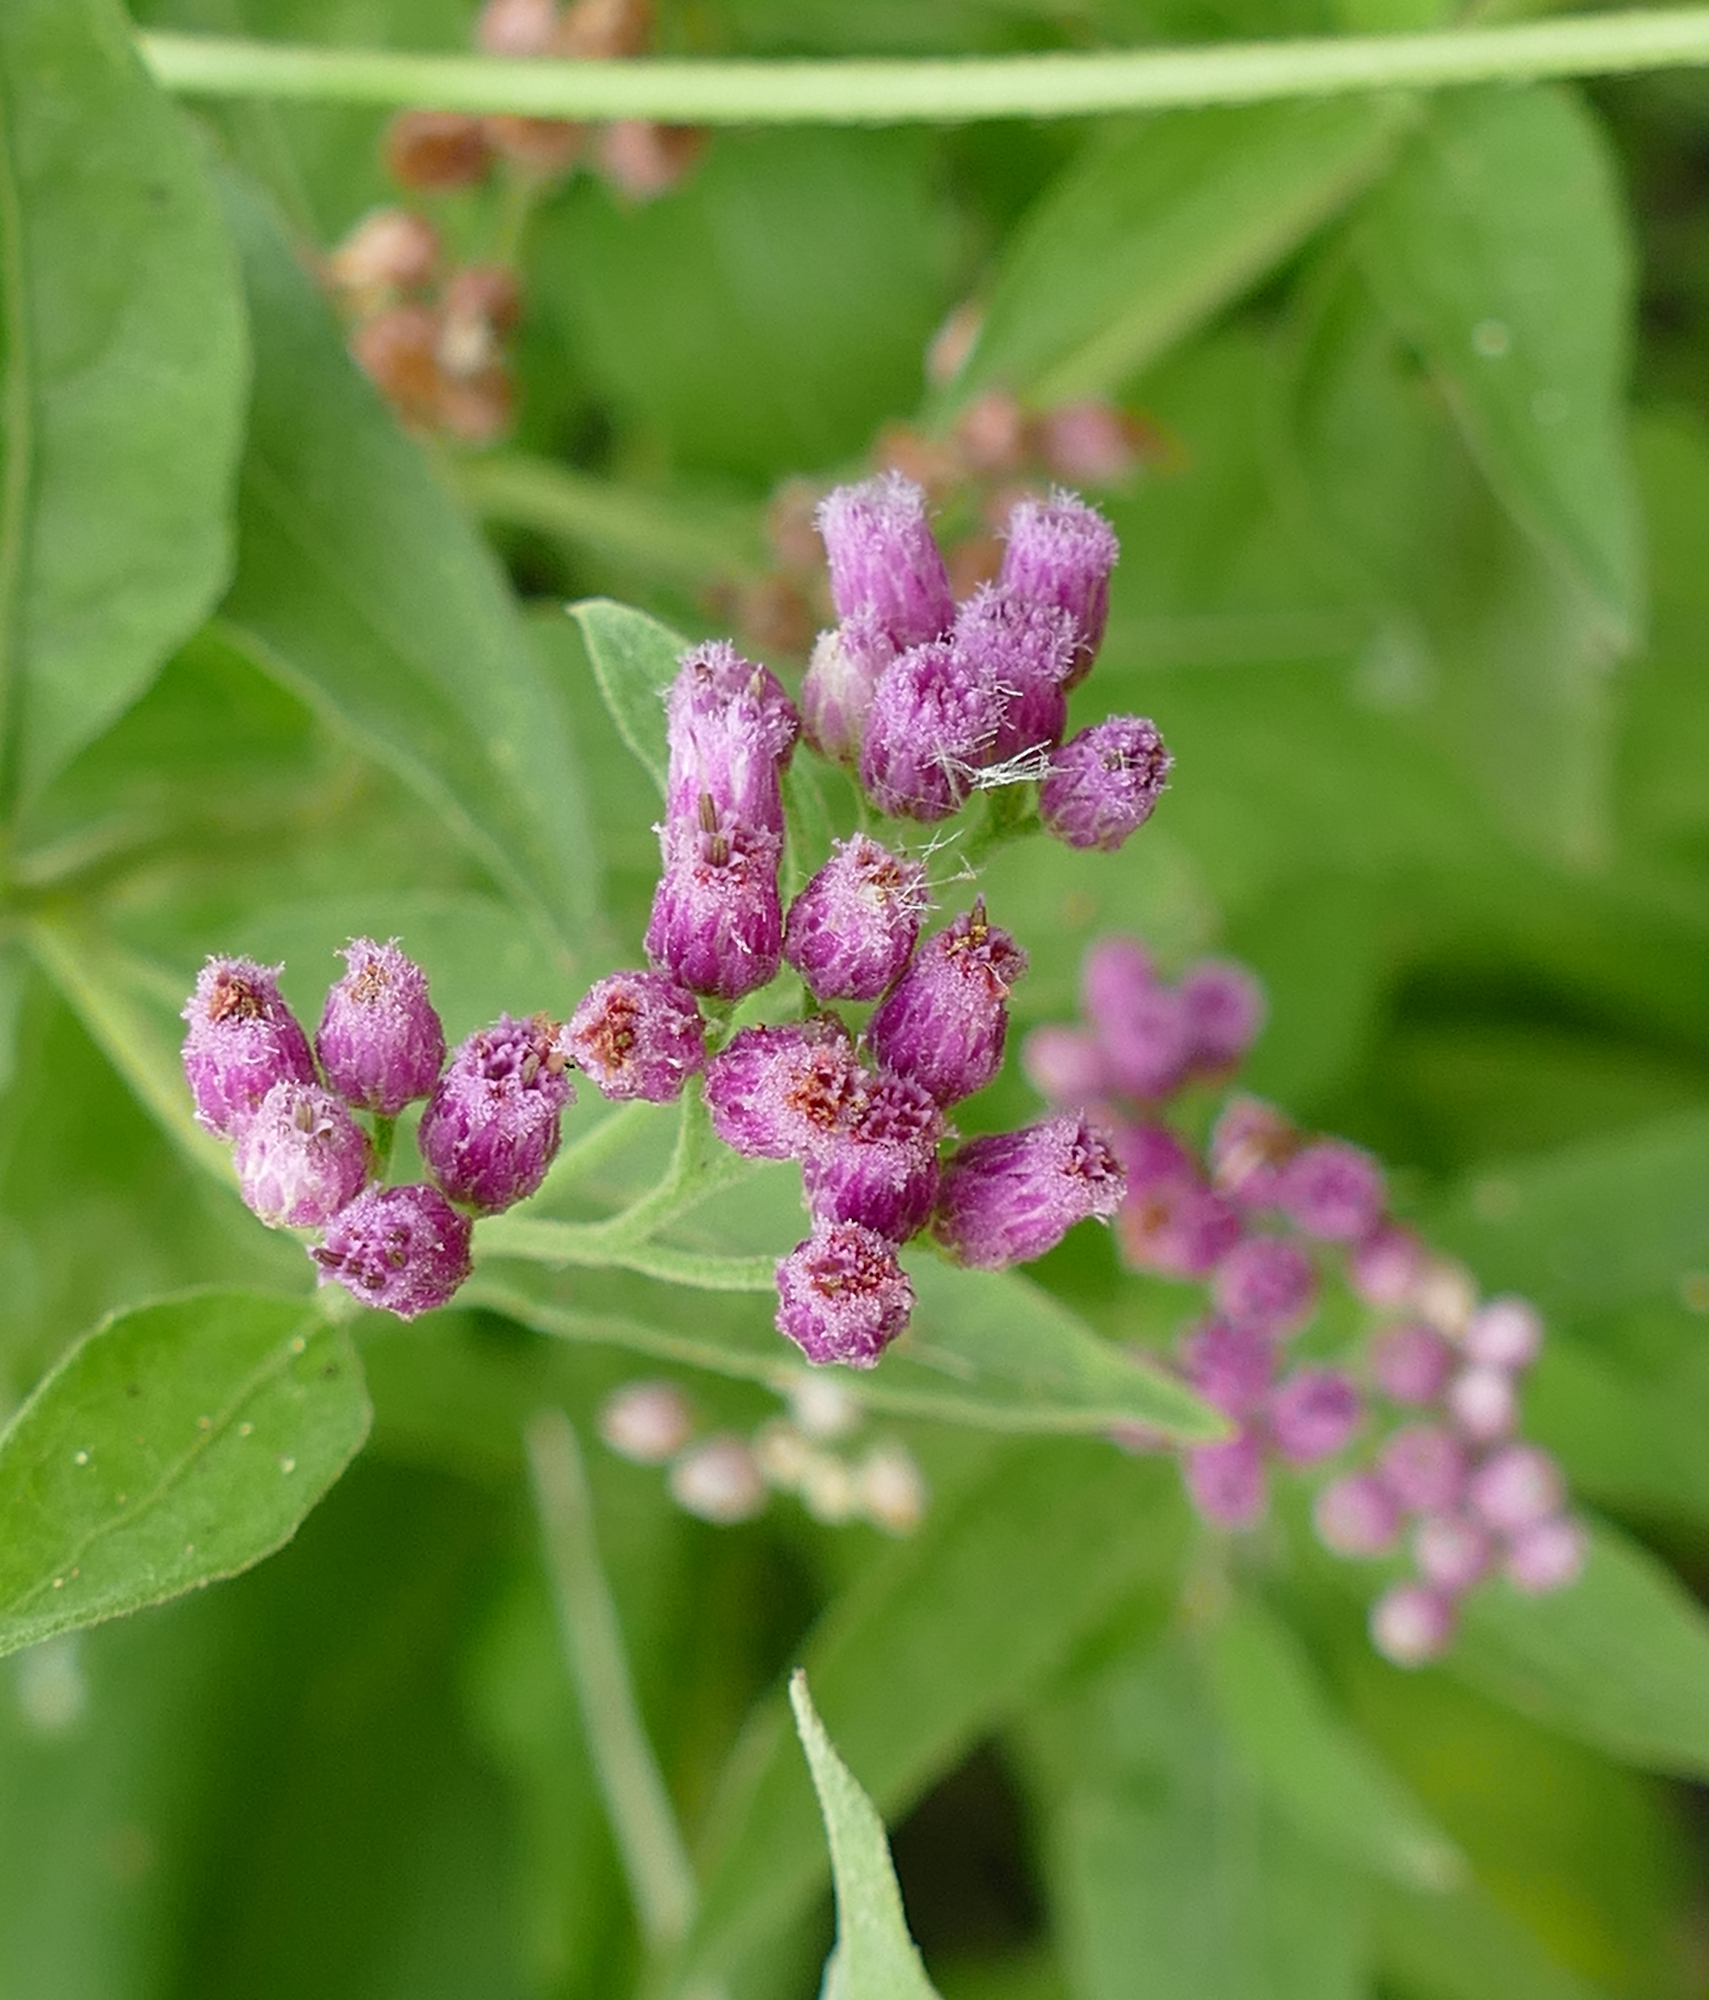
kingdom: Plantae
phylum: Tracheophyta
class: Magnoliopsida
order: Asterales
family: Asteraceae
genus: Pluchea
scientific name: Pluchea odorata
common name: Saltmarsh fleabane
